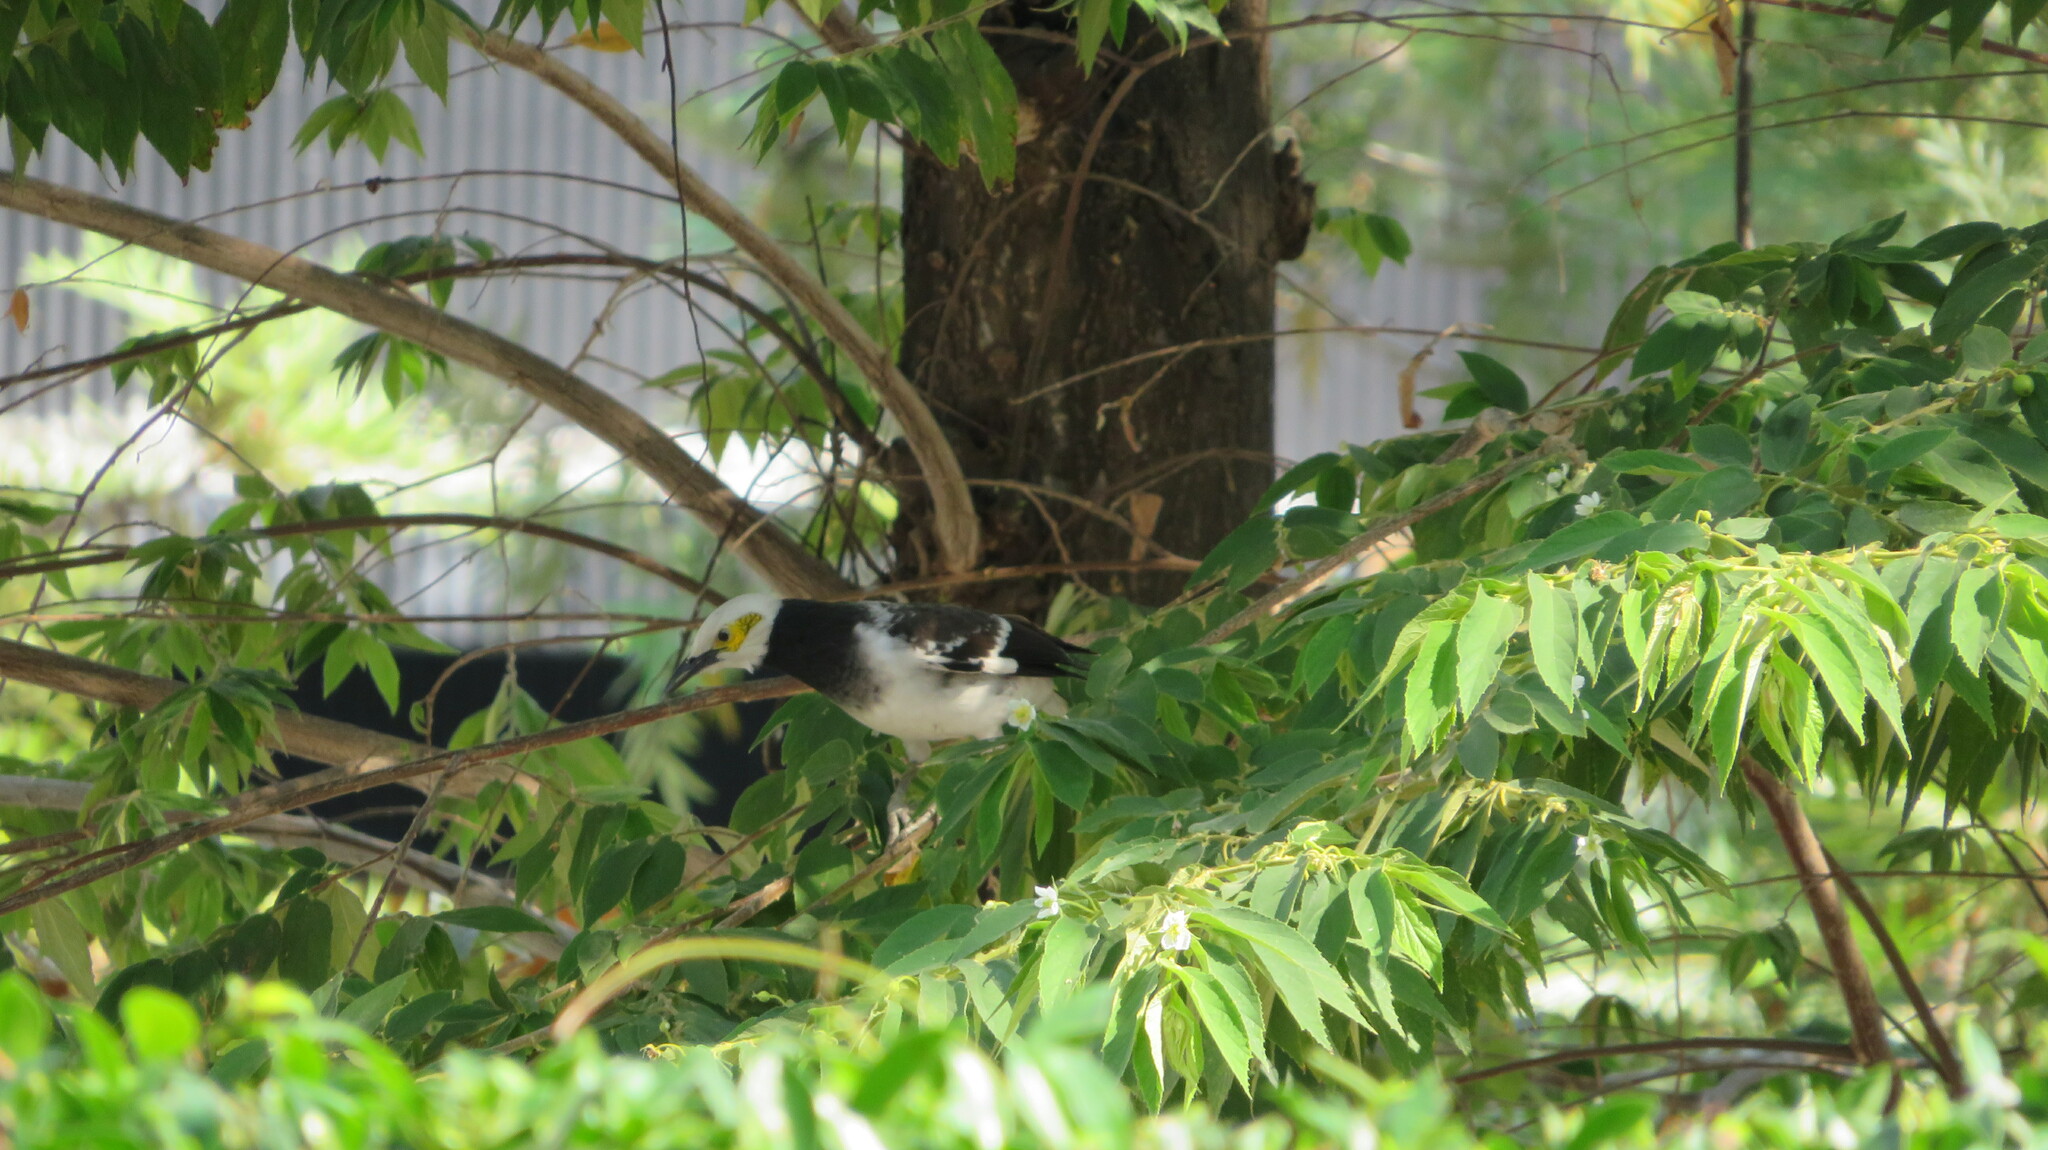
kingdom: Animalia
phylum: Chordata
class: Aves
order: Passeriformes
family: Sturnidae
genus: Gracupica
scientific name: Gracupica nigricollis
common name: Black-collared starling
